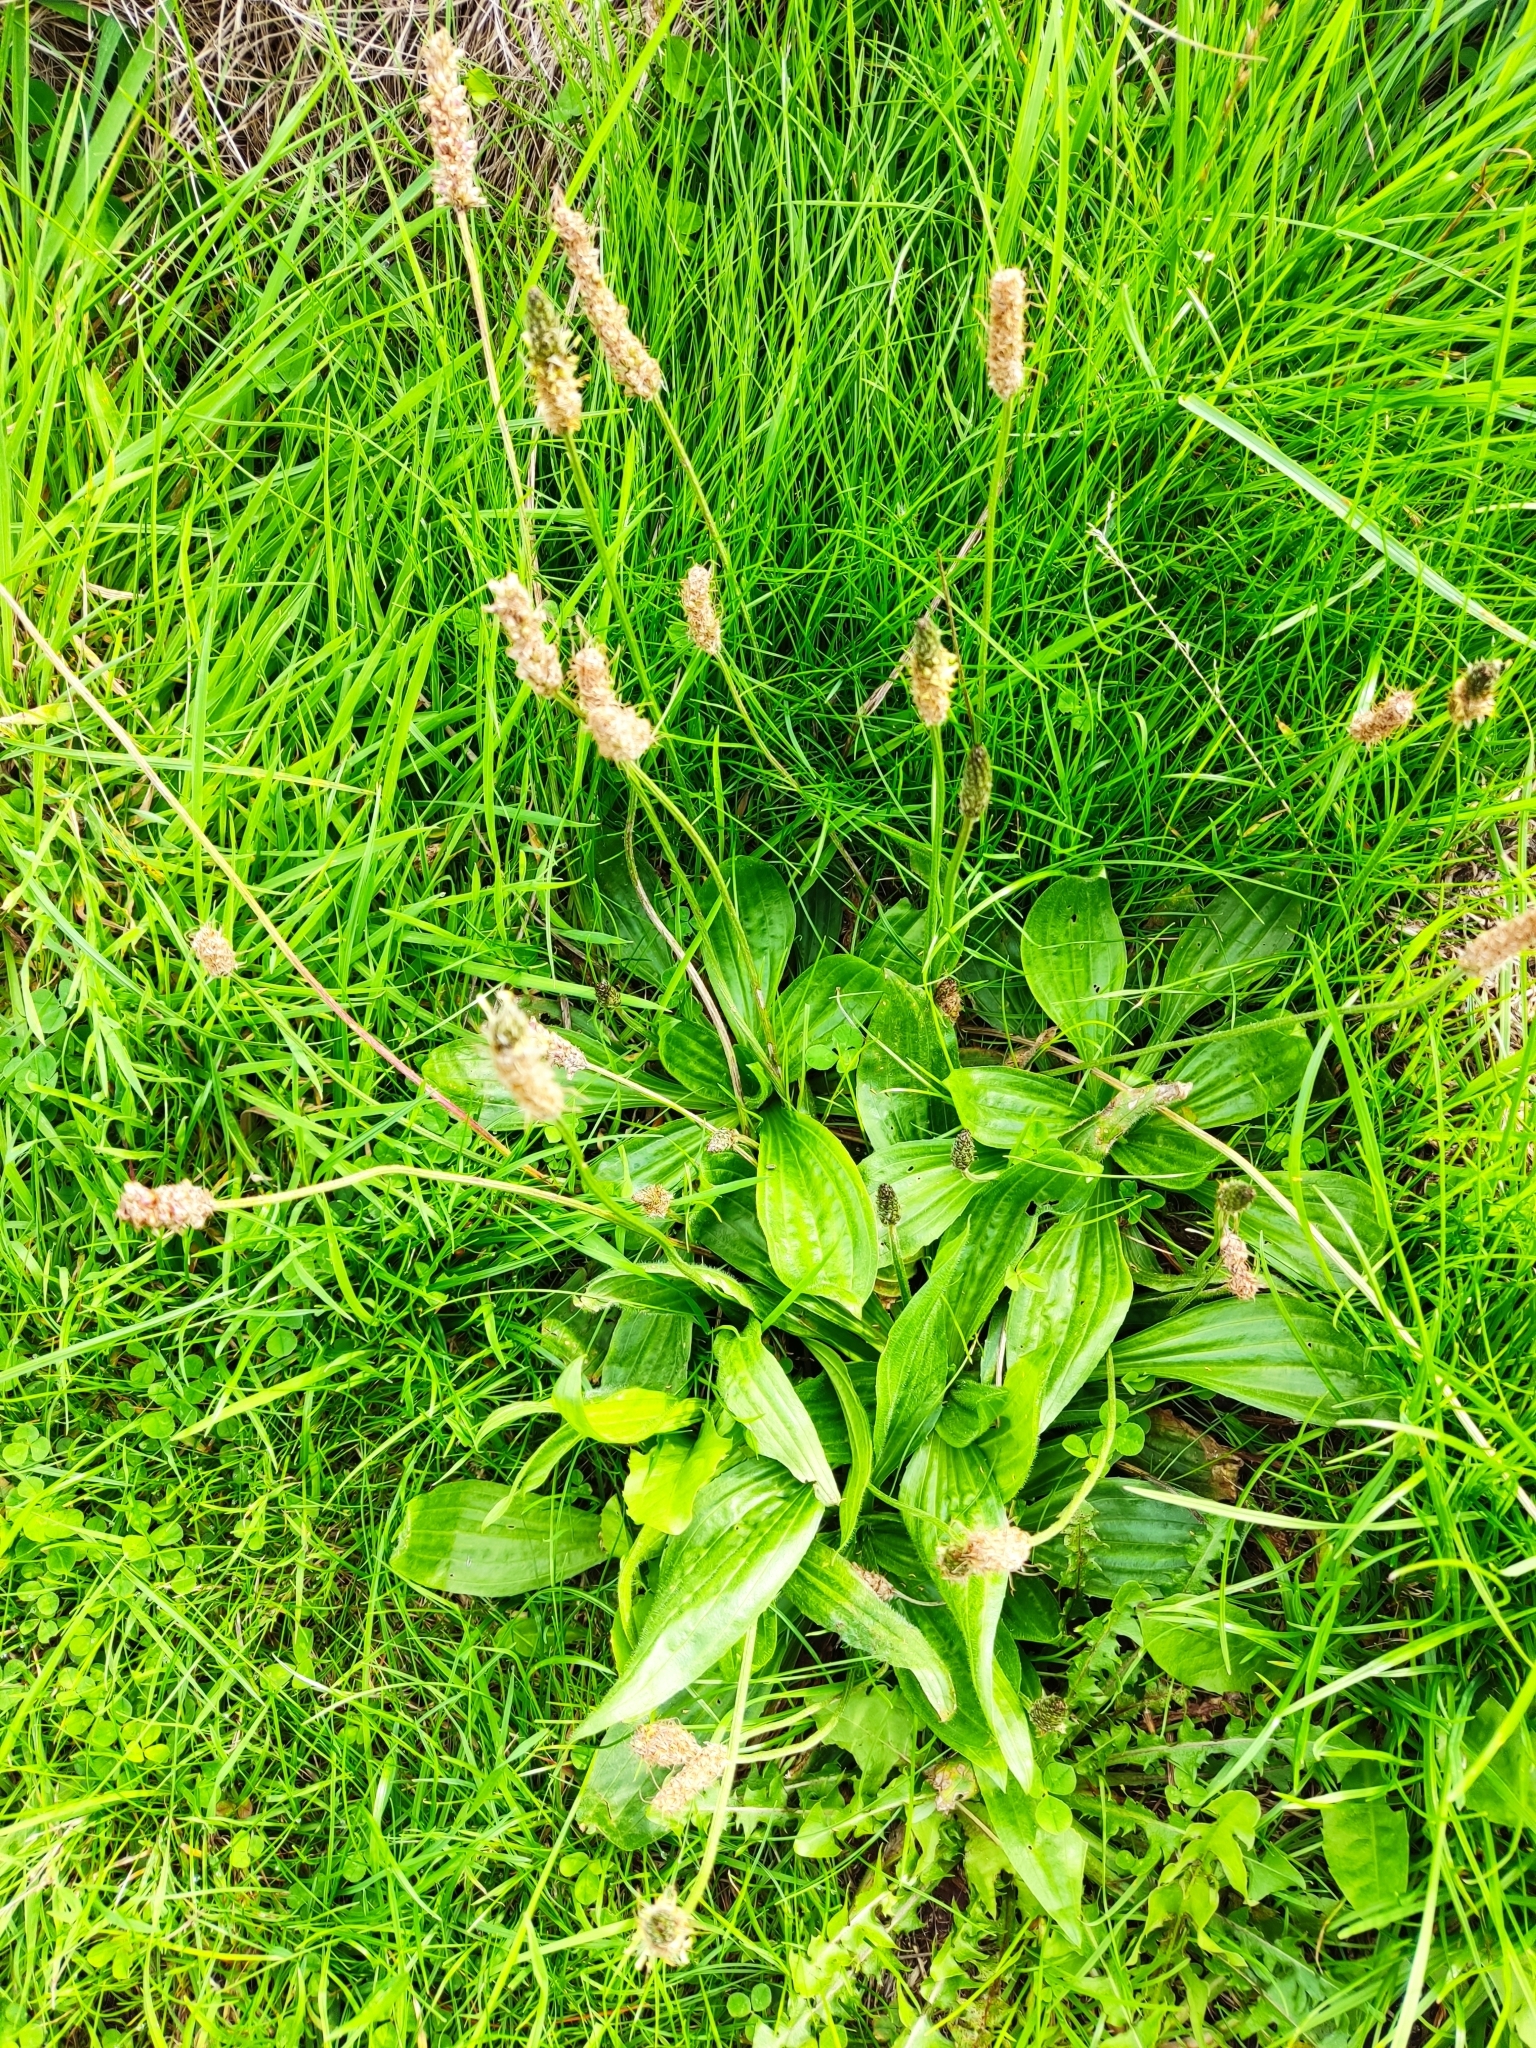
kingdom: Plantae
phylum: Tracheophyta
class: Magnoliopsida
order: Lamiales
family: Plantaginaceae
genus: Plantago
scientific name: Plantago lanceolata
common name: Ribwort plantain
